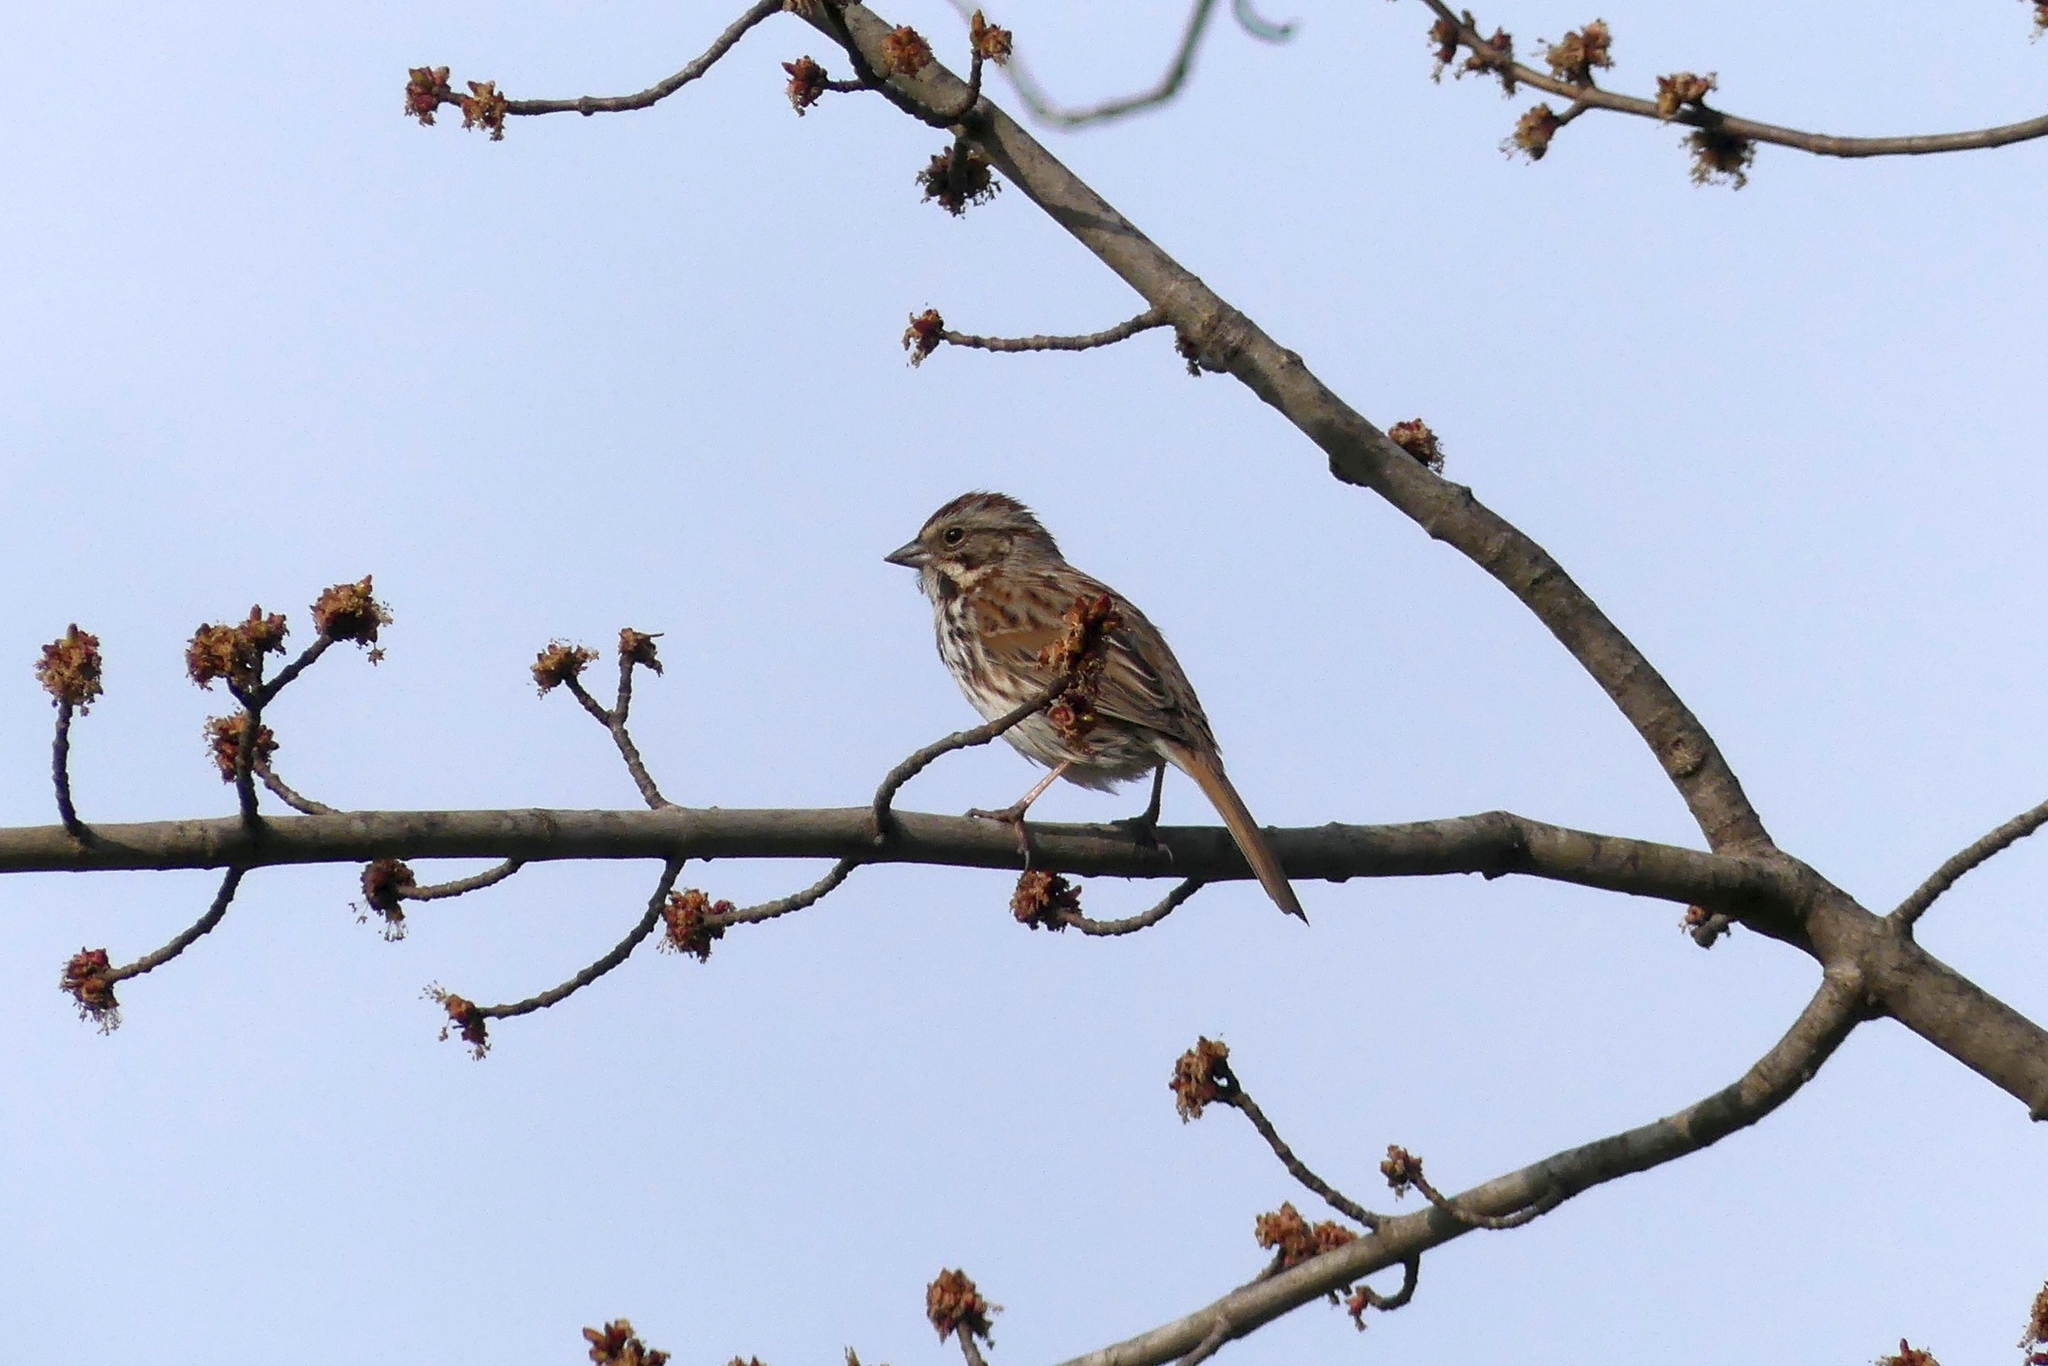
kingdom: Animalia
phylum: Chordata
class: Aves
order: Passeriformes
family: Passerellidae
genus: Melospiza
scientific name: Melospiza melodia
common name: Song sparrow
